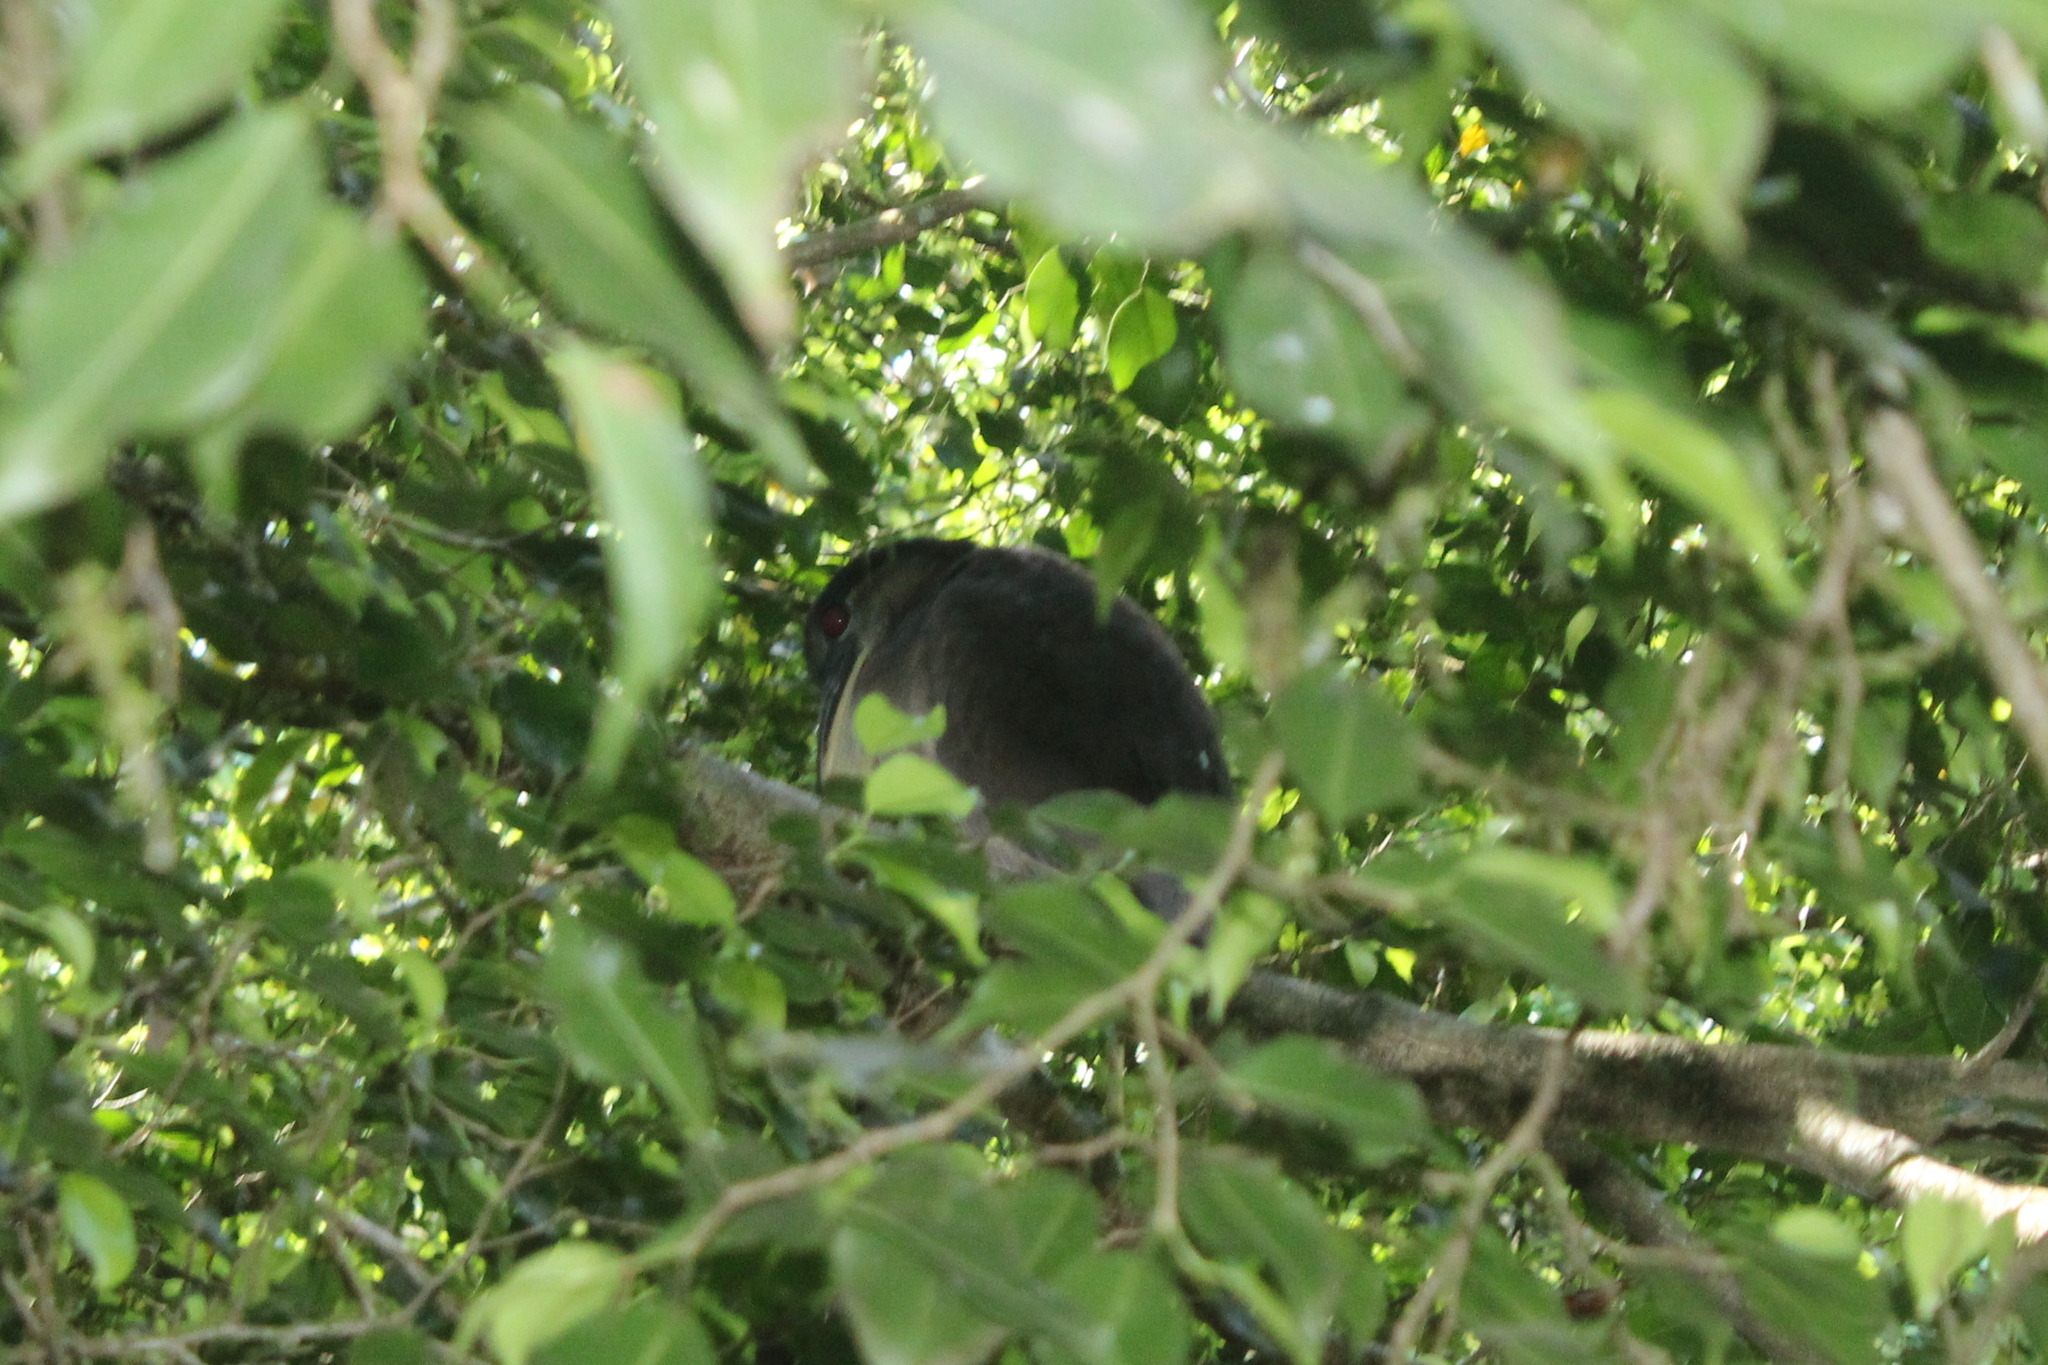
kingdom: Animalia
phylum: Chordata
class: Mammalia
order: Primates
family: Atelidae
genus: Alouatta
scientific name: Alouatta palliata
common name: Mantled howler
